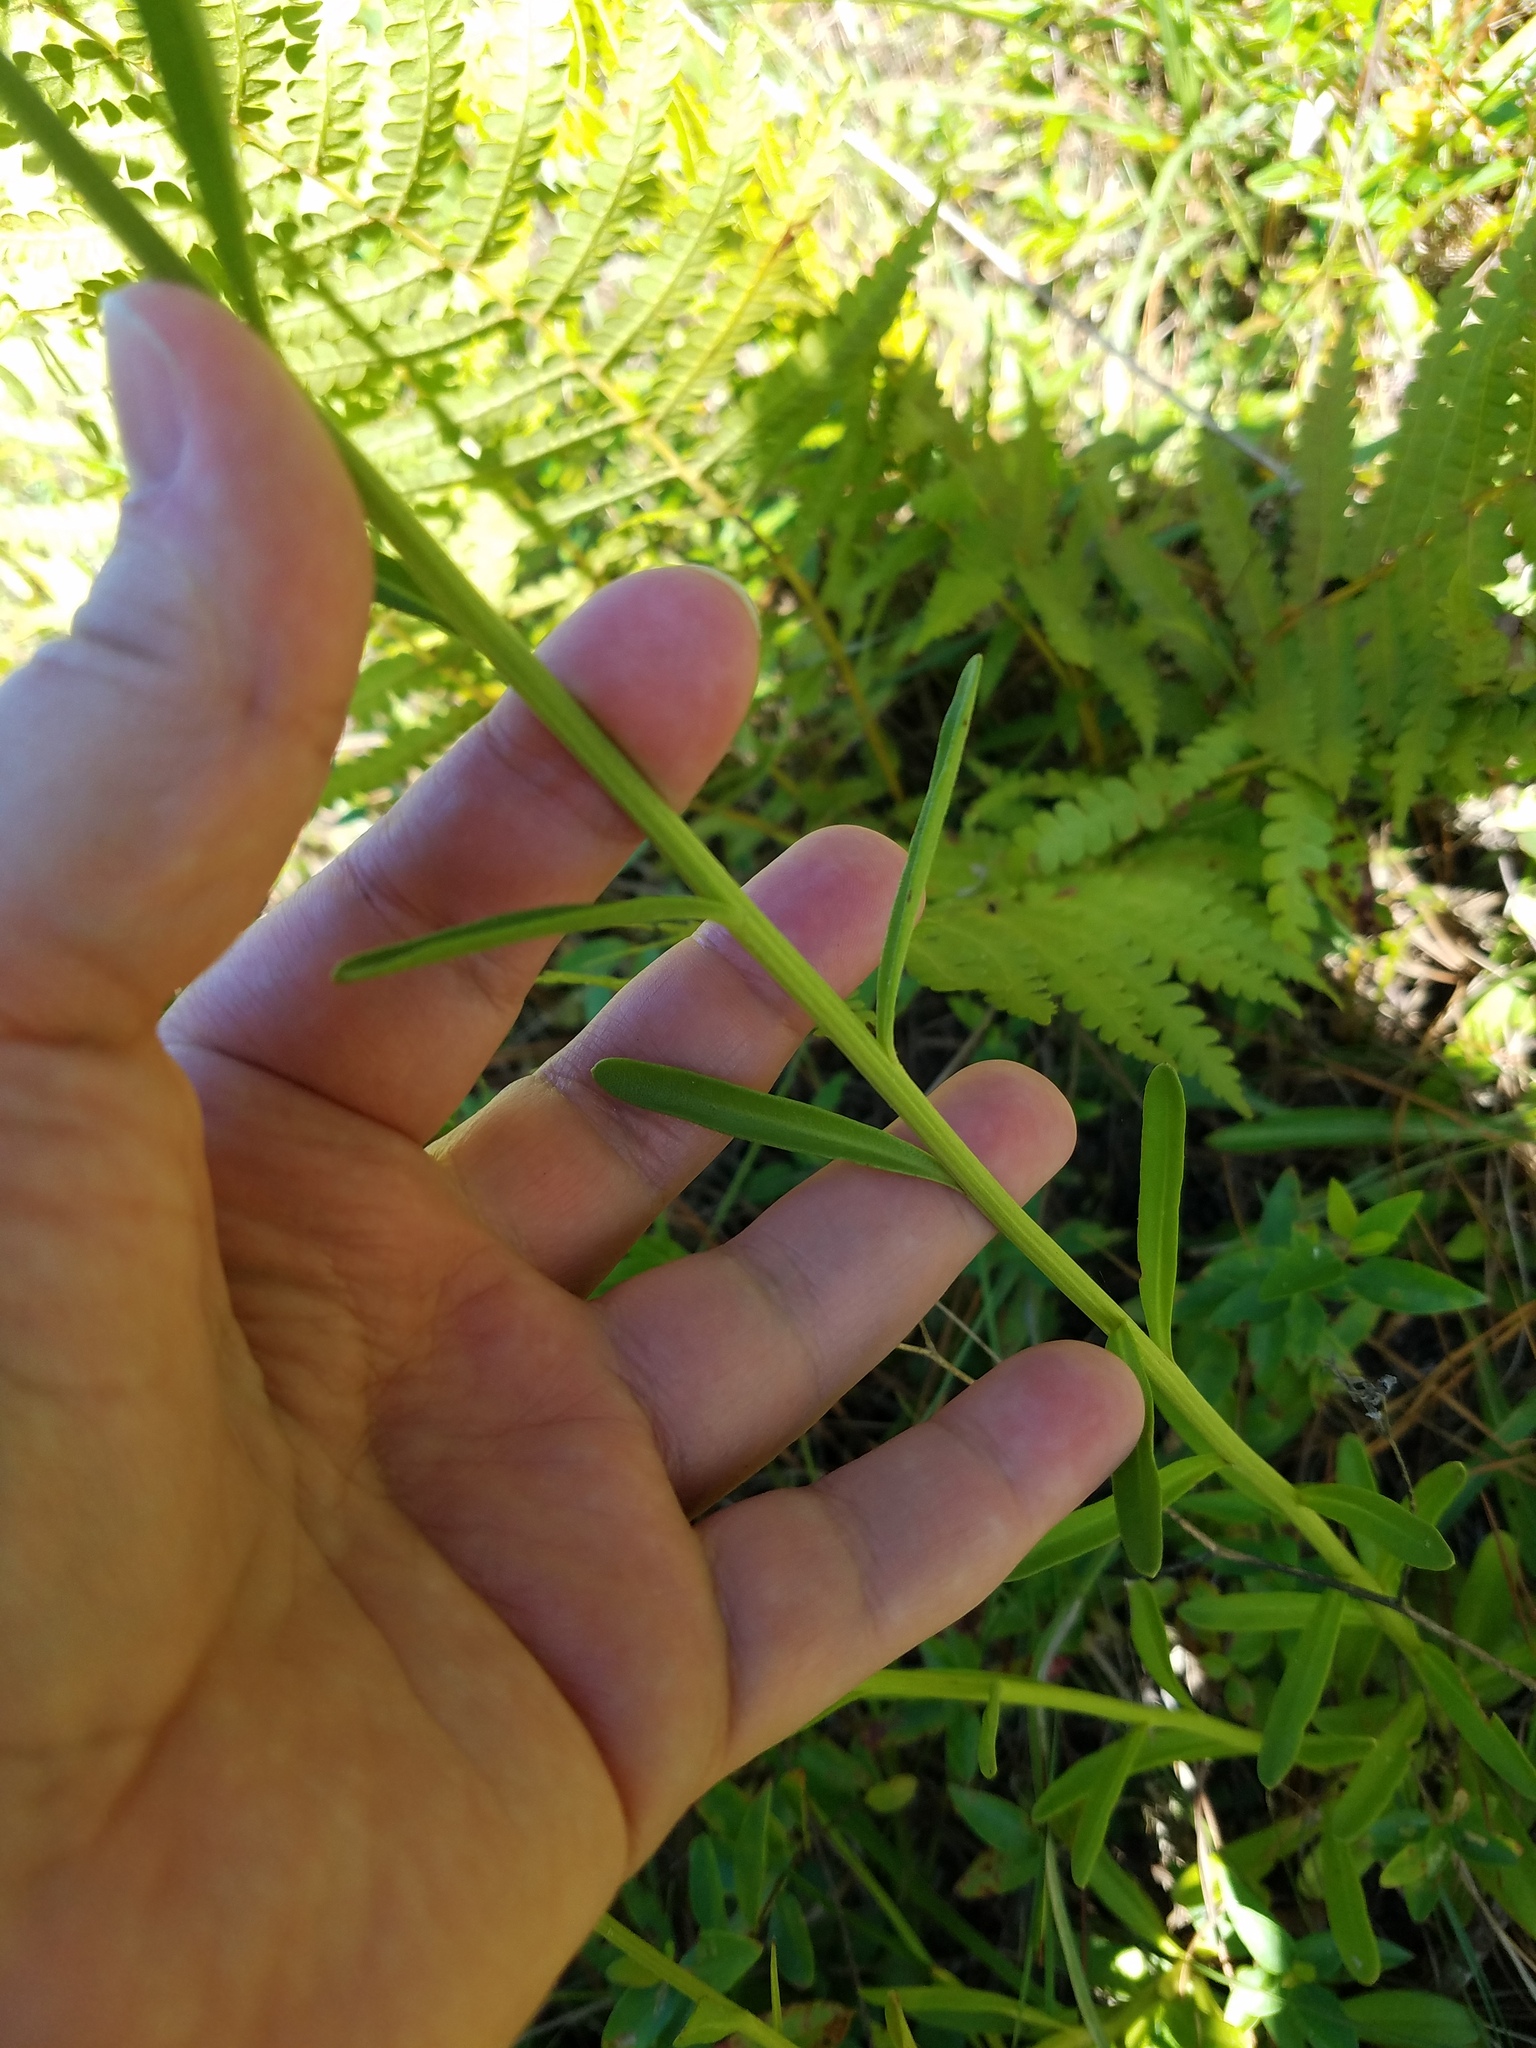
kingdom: Plantae
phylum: Tracheophyta
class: Magnoliopsida
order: Asterales
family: Asteraceae
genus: Balduina
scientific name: Balduina uniflora
